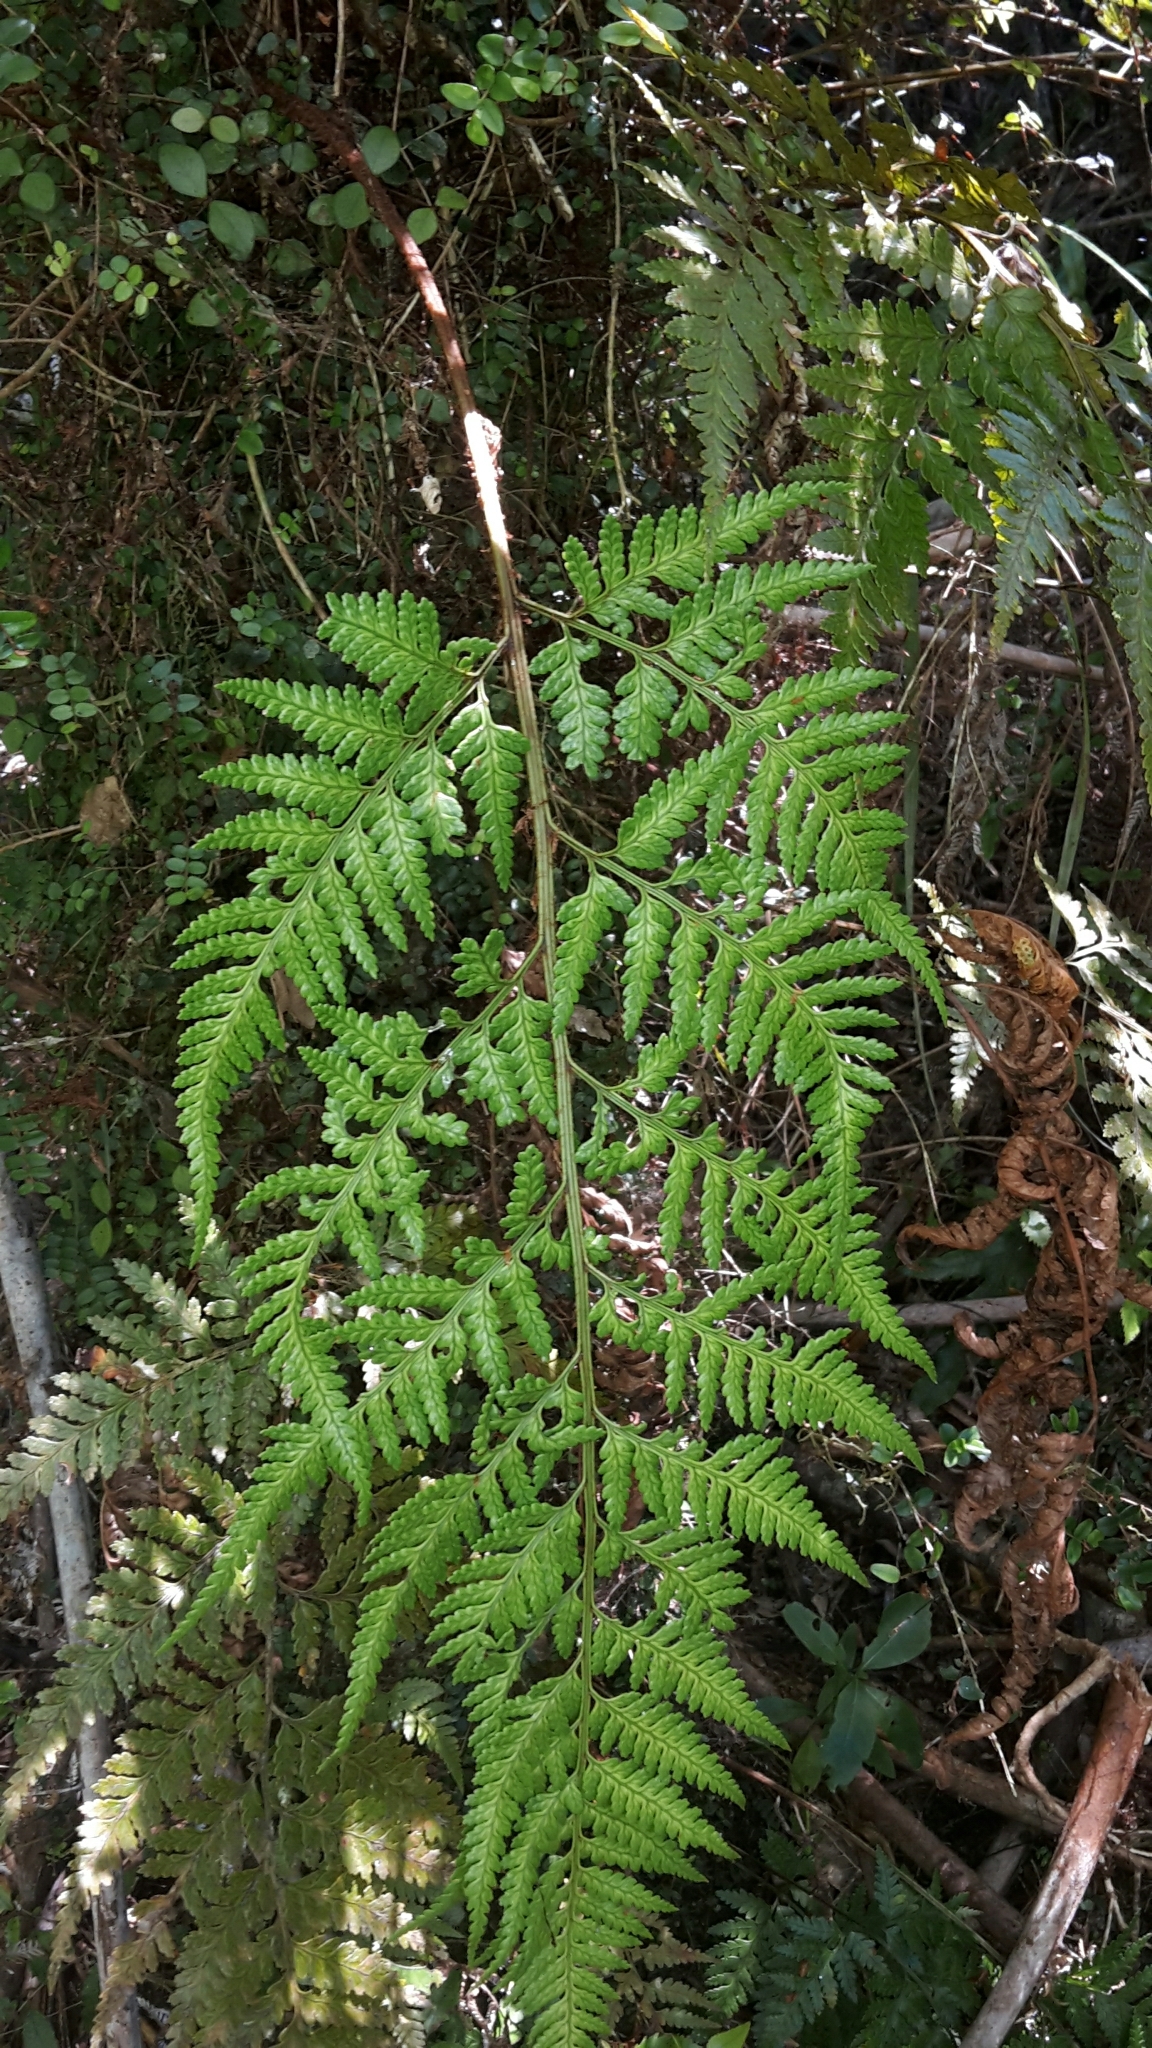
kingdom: Plantae
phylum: Tracheophyta
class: Polypodiopsida
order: Polypodiales
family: Dryopteridaceae
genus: Rumohra
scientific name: Rumohra adiantiformis
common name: Leather fern
